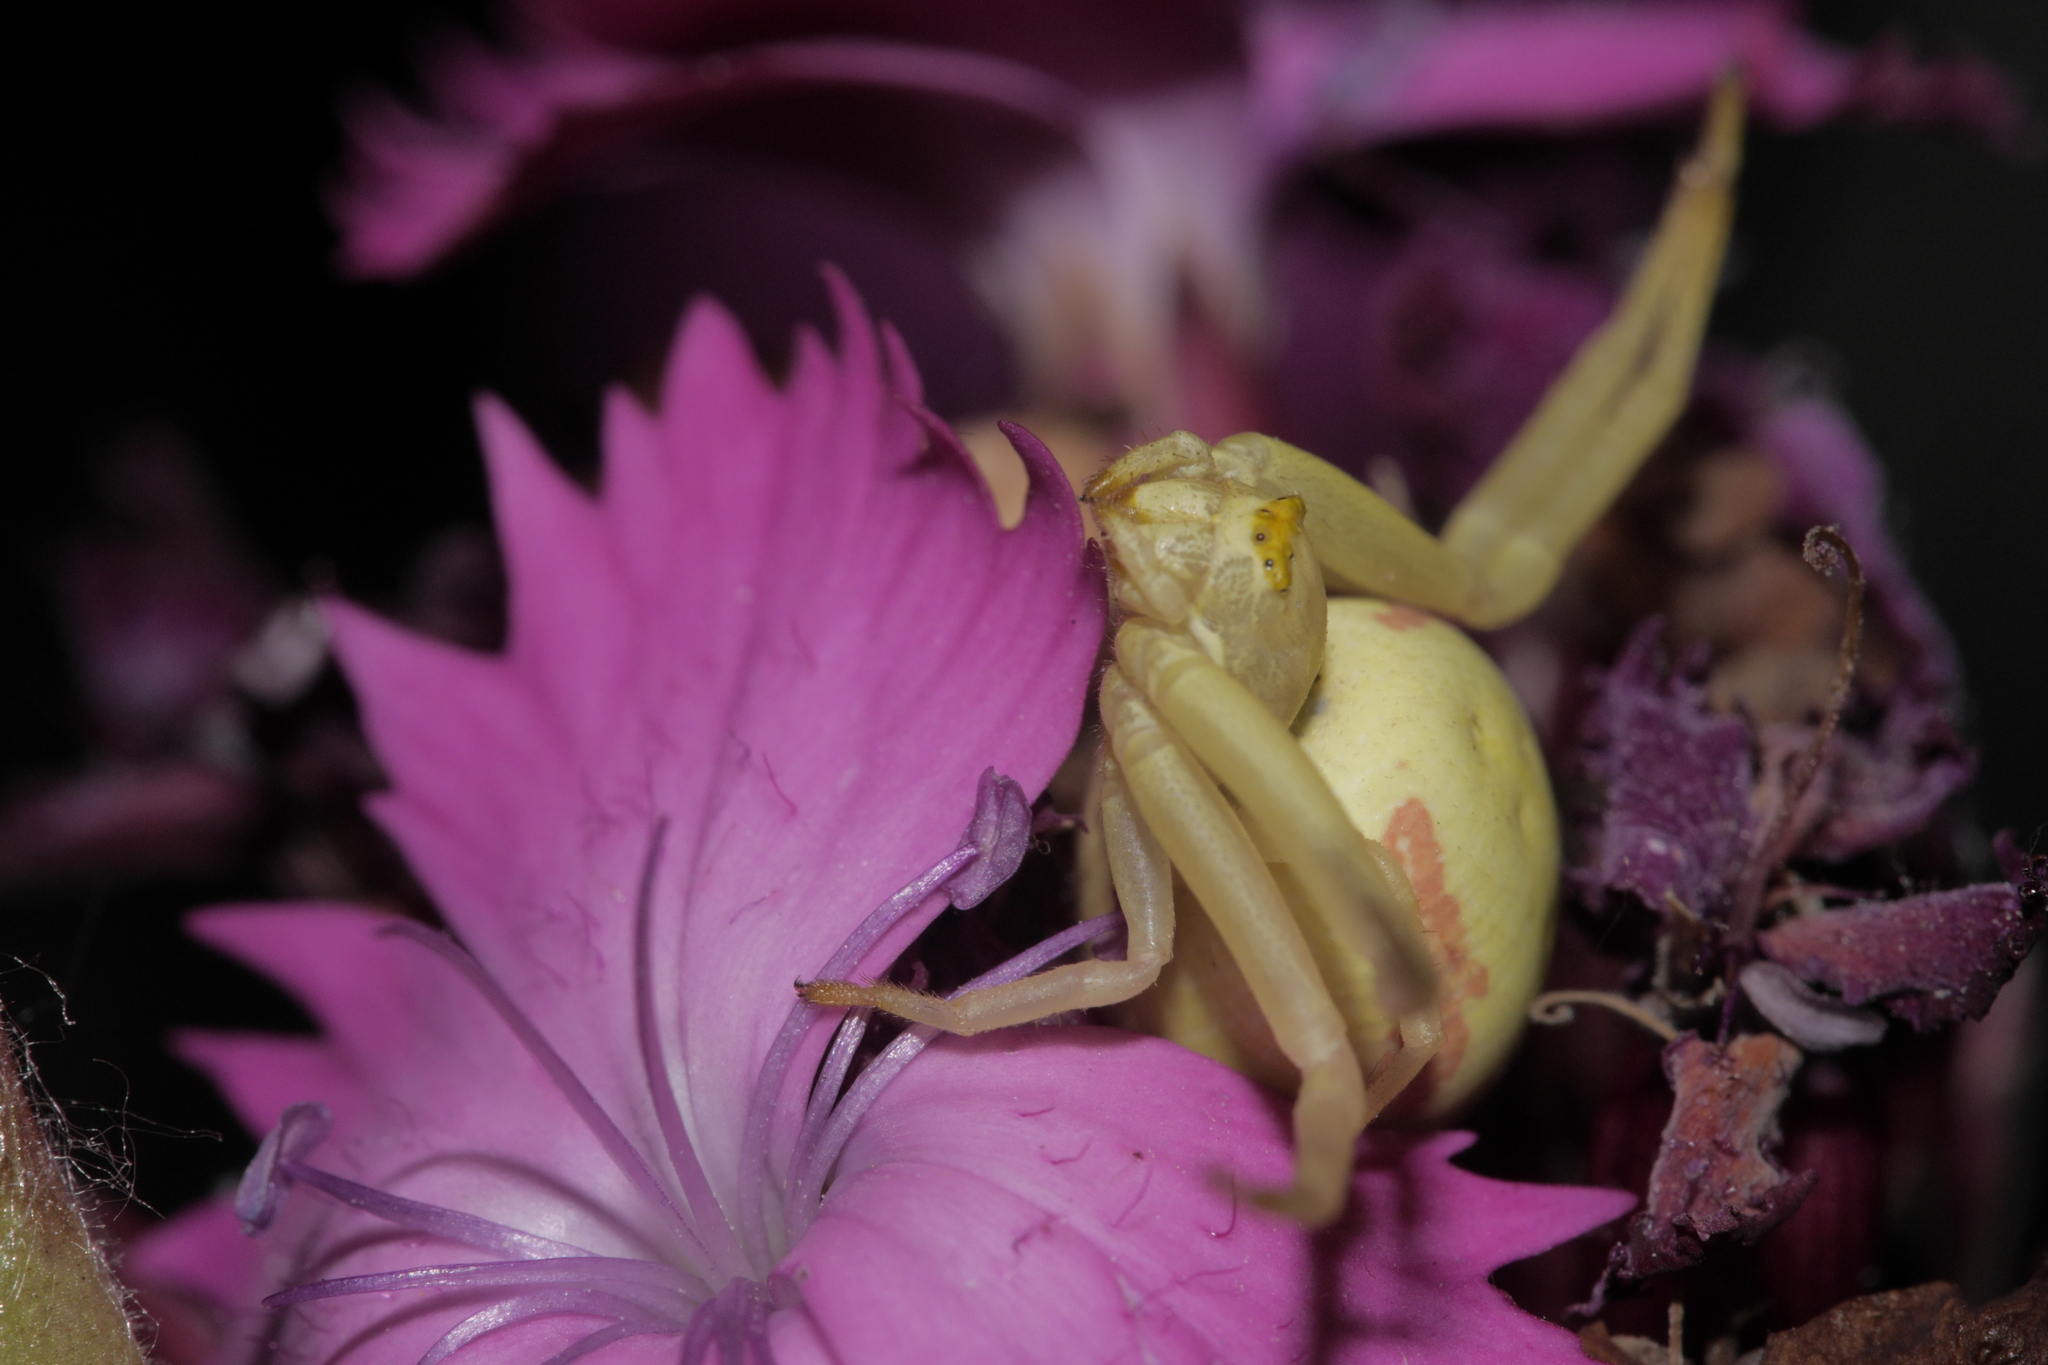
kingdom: Animalia
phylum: Arthropoda
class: Arachnida
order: Araneae
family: Thomisidae
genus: Misumena
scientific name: Misumena vatia
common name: Goldenrod crab spider
